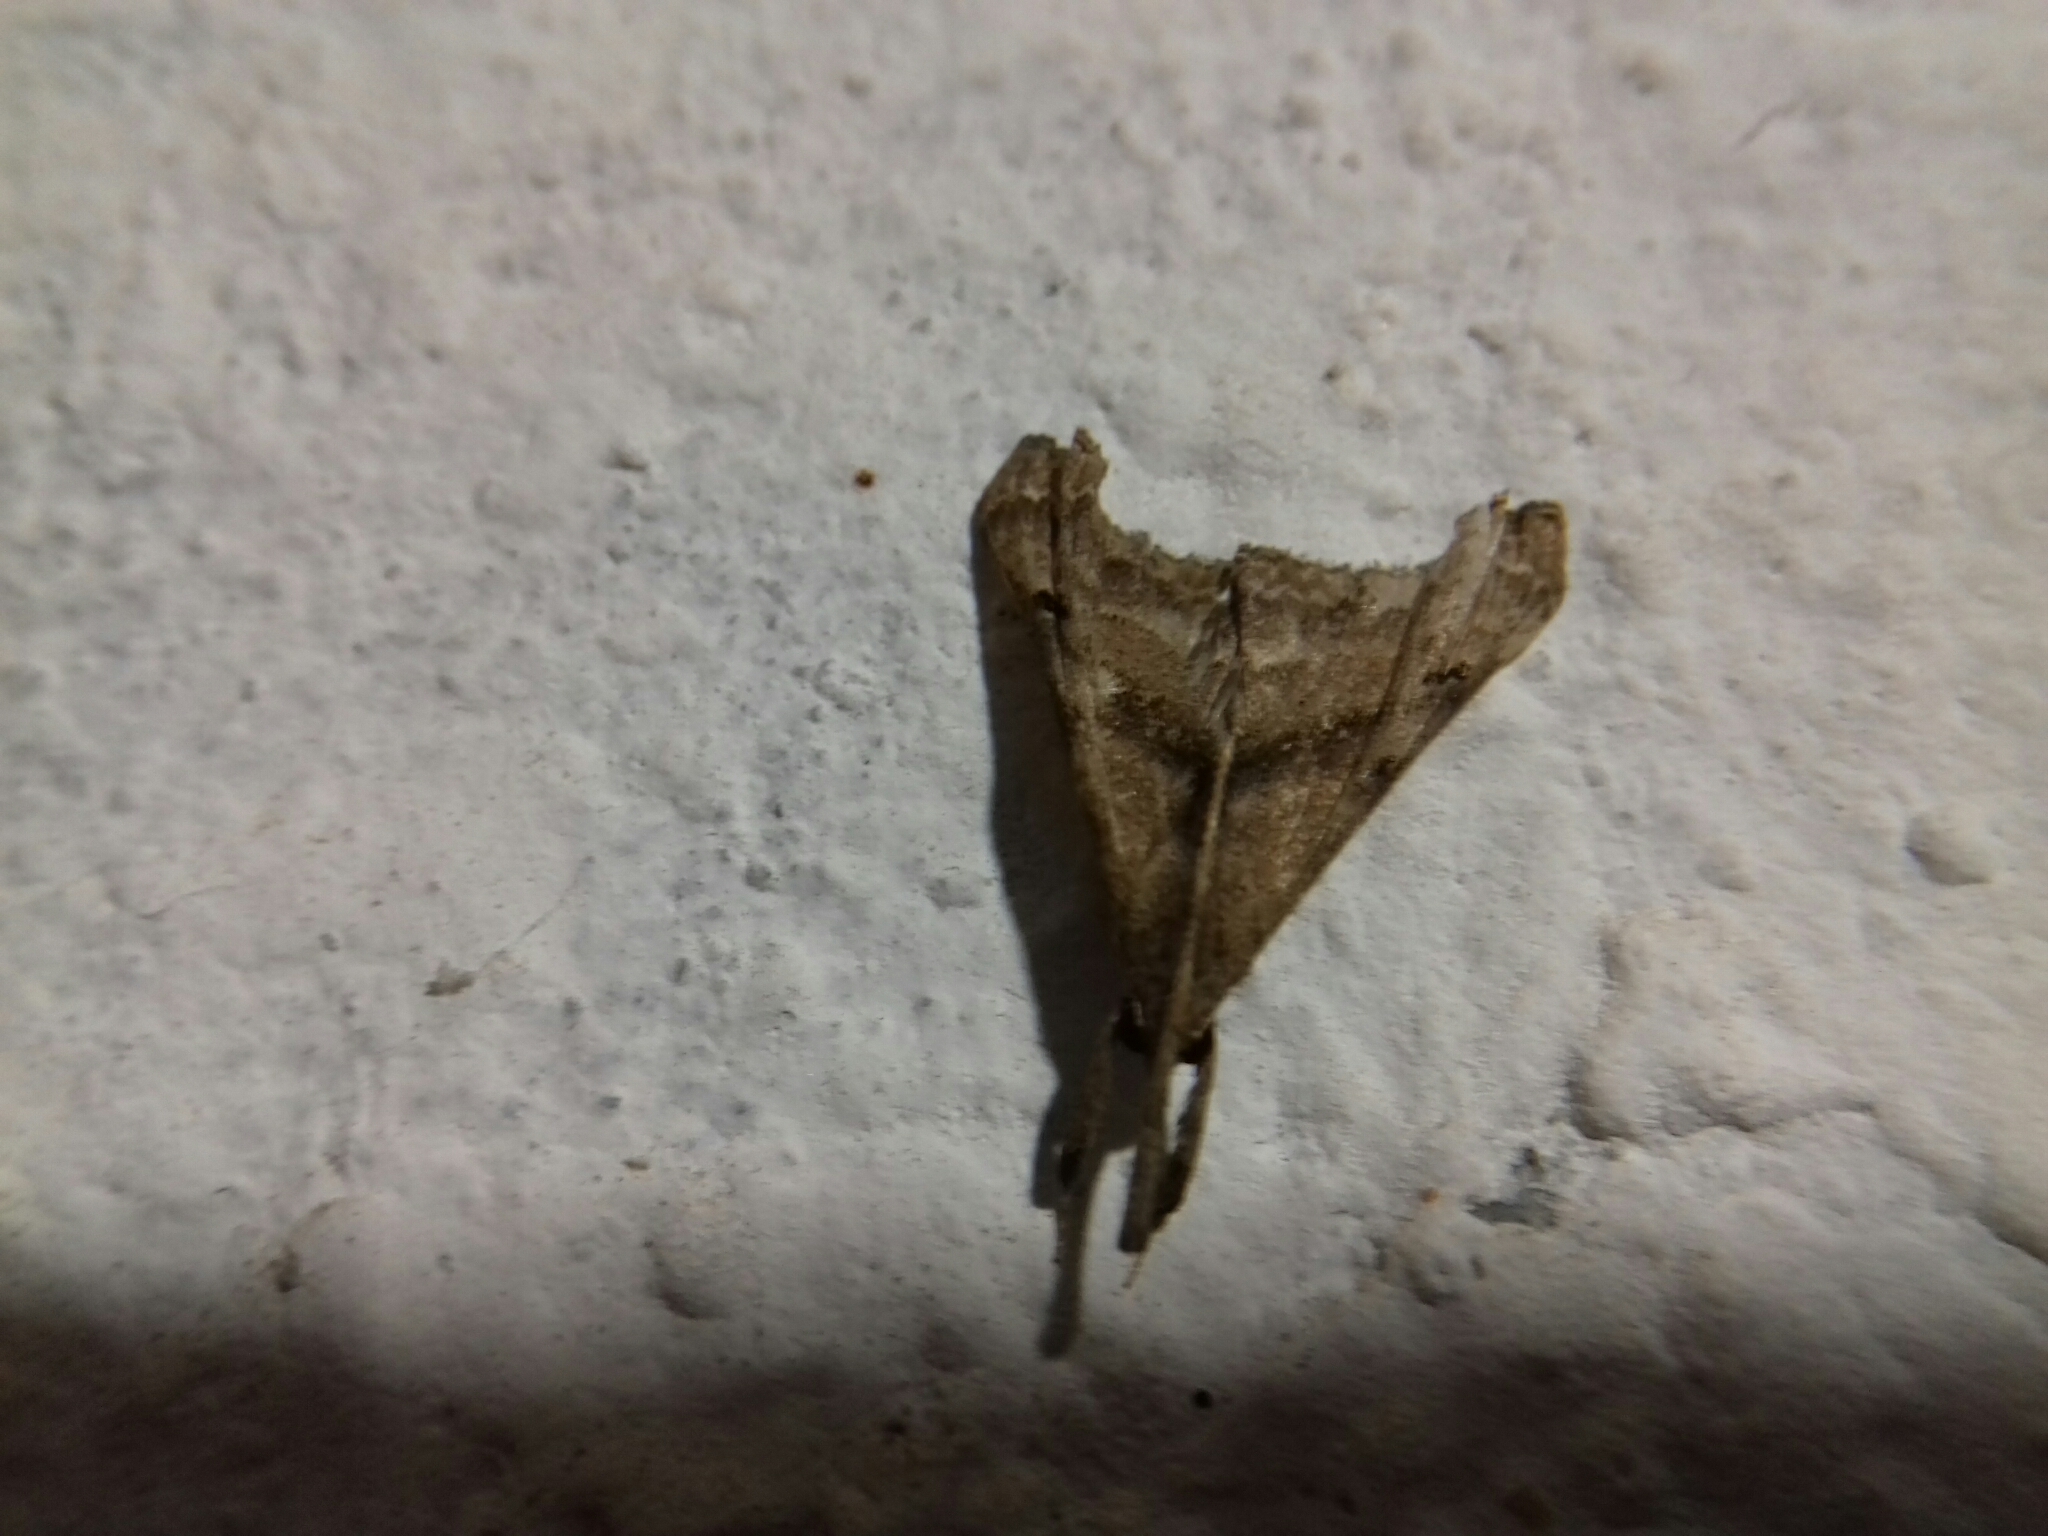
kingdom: Animalia
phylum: Arthropoda
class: Insecta
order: Lepidoptera
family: Erebidae
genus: Palthis
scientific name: Palthis angulalis
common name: Dark-spotted palthis moth
